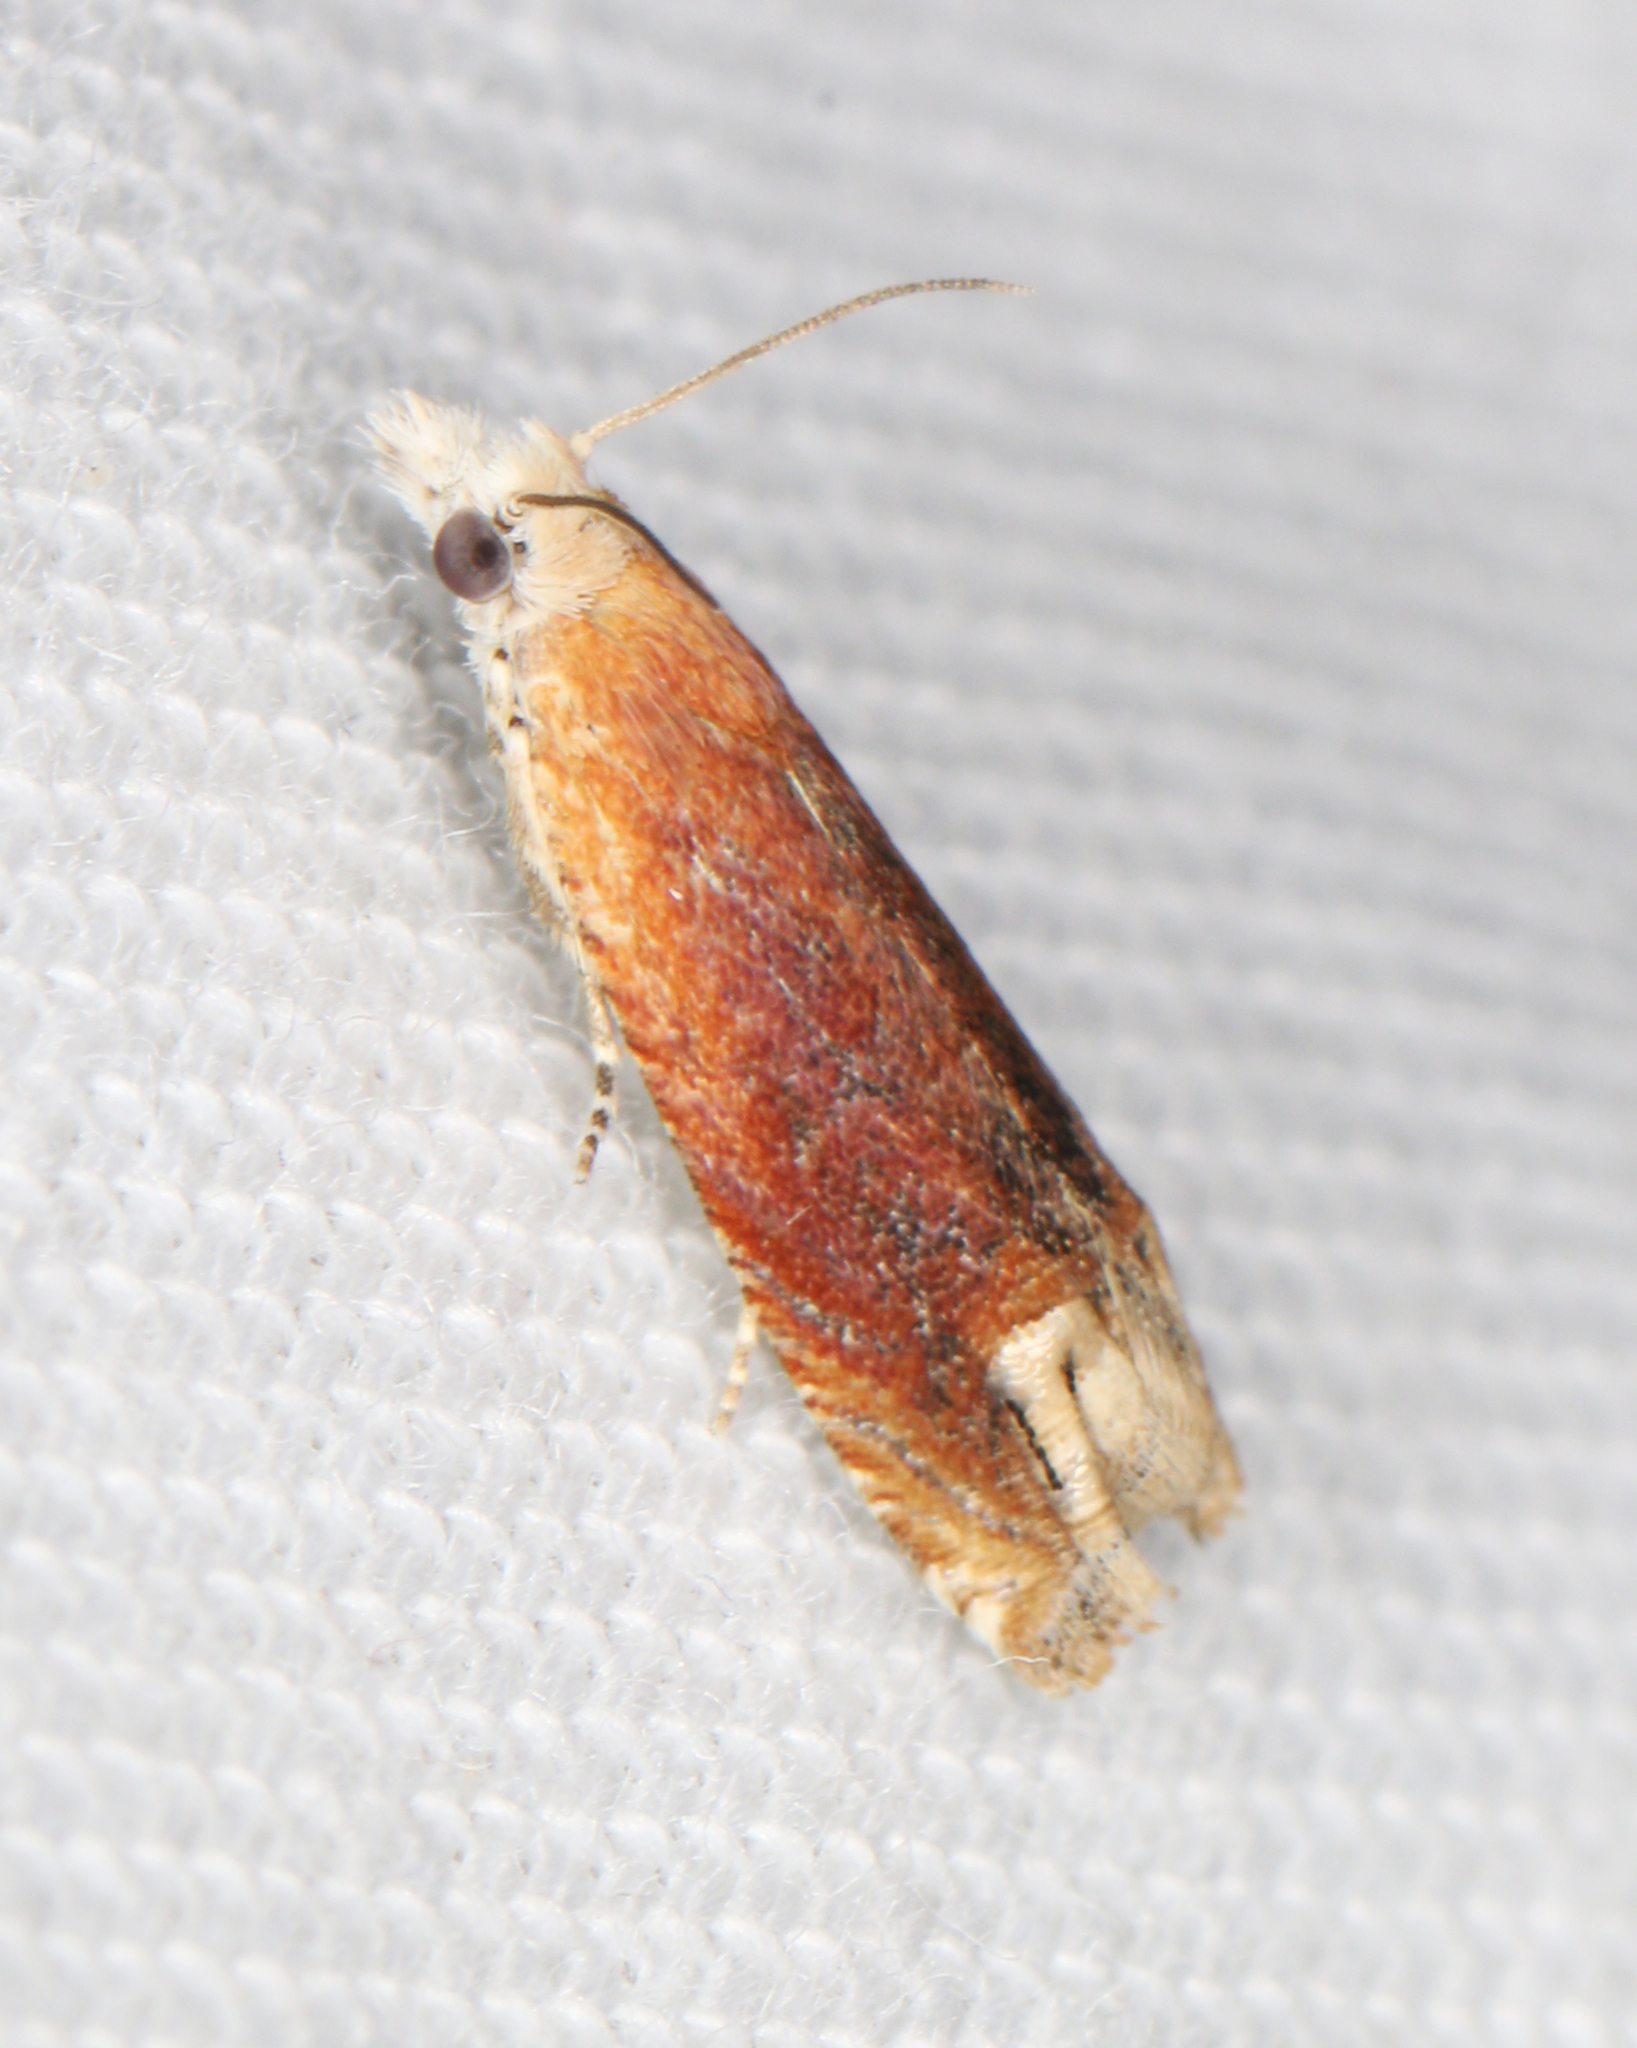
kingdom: Animalia
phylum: Arthropoda
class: Insecta
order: Lepidoptera
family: Tortricidae
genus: Eucosma
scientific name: Eucosma raracana
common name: Reddish eucosma moth
